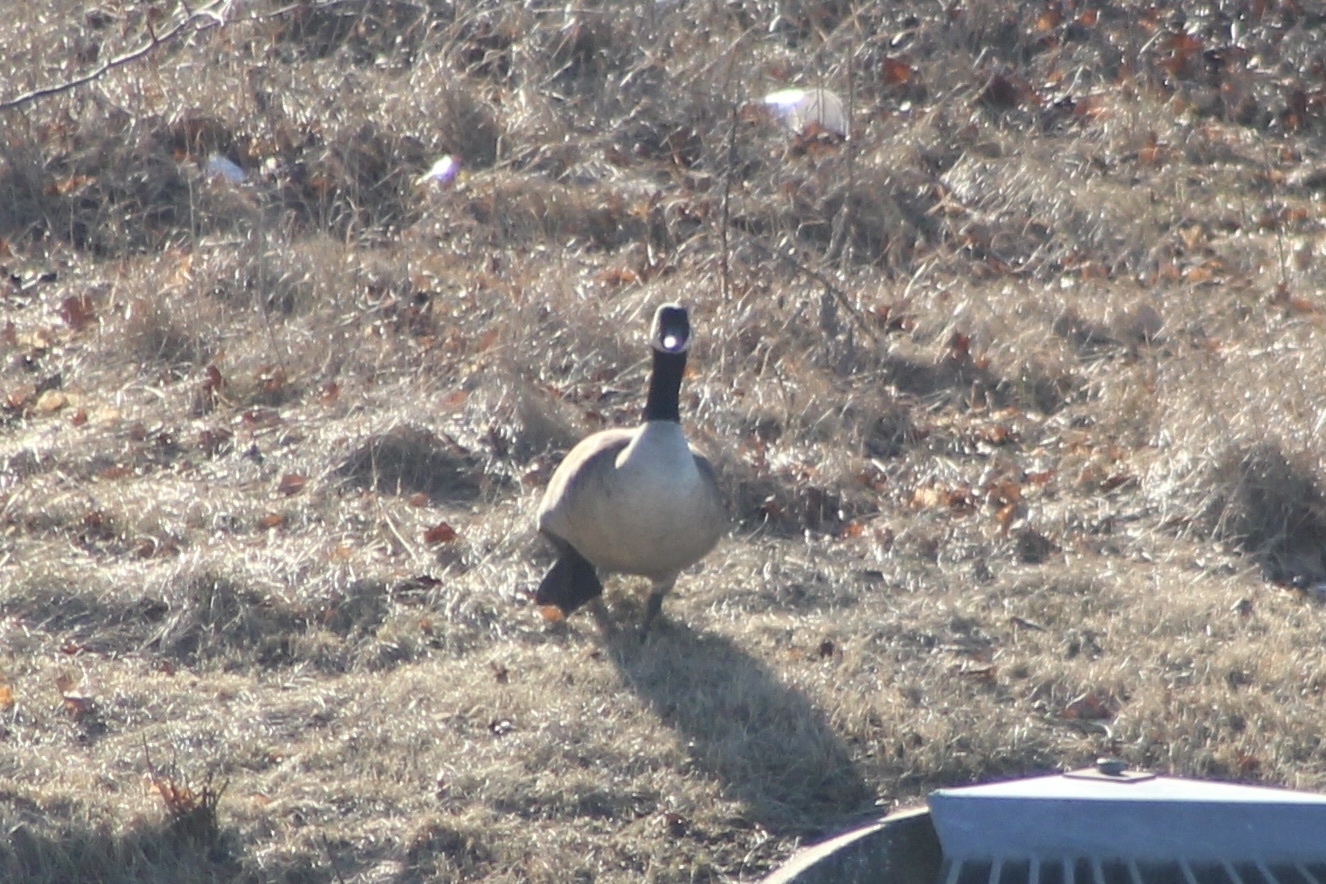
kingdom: Animalia
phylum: Chordata
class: Aves
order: Anseriformes
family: Anatidae
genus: Branta
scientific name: Branta canadensis
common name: Canada goose
